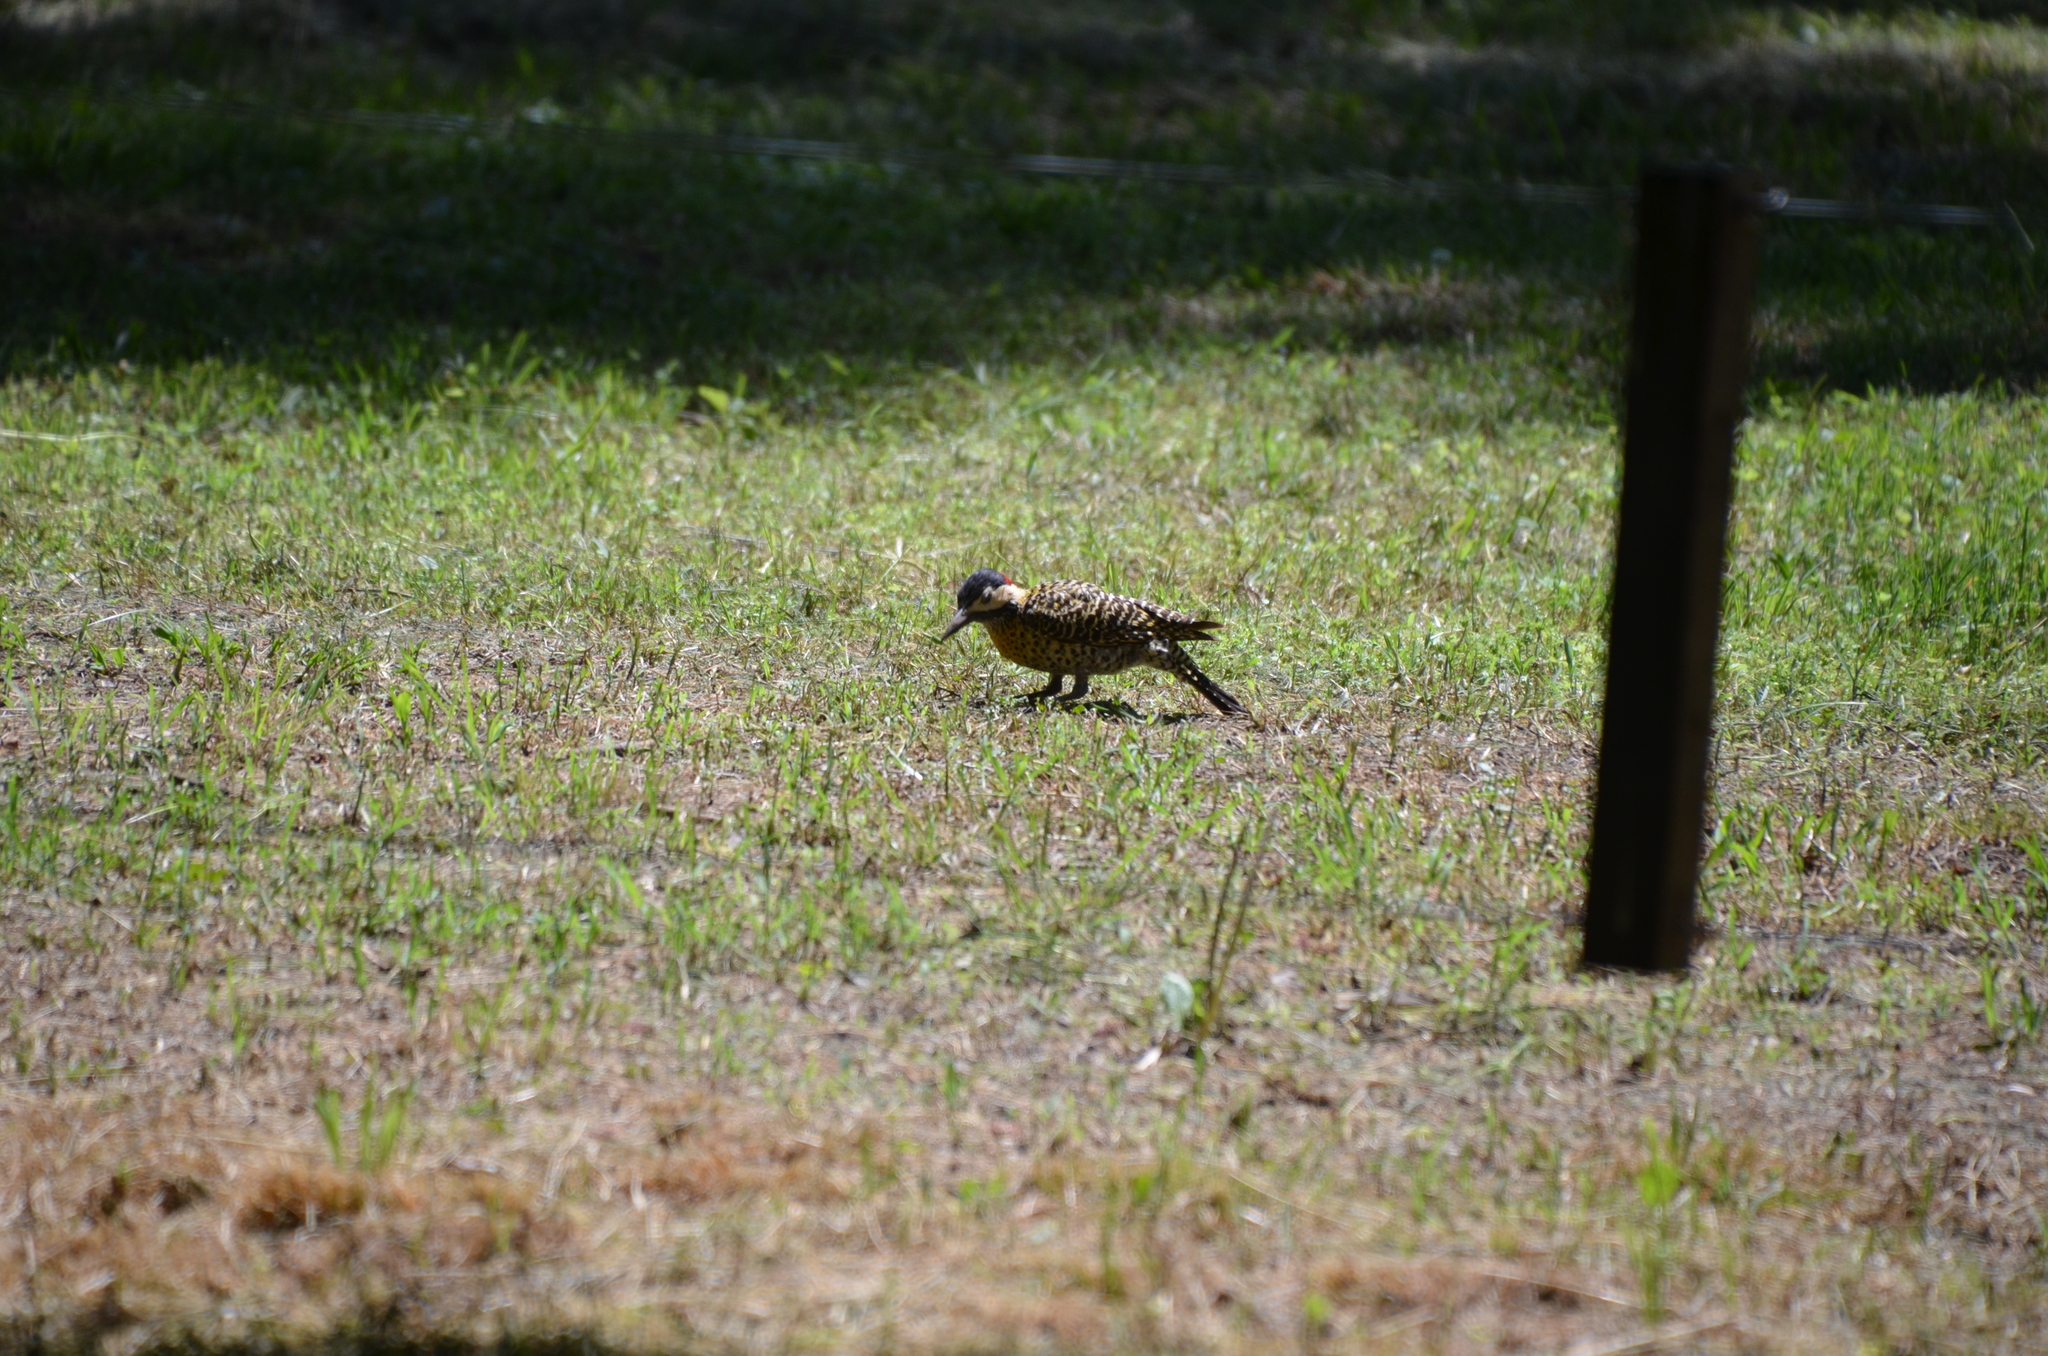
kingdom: Animalia
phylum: Chordata
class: Aves
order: Piciformes
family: Picidae
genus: Colaptes
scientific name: Colaptes melanochloros
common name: Green-barred woodpecker
